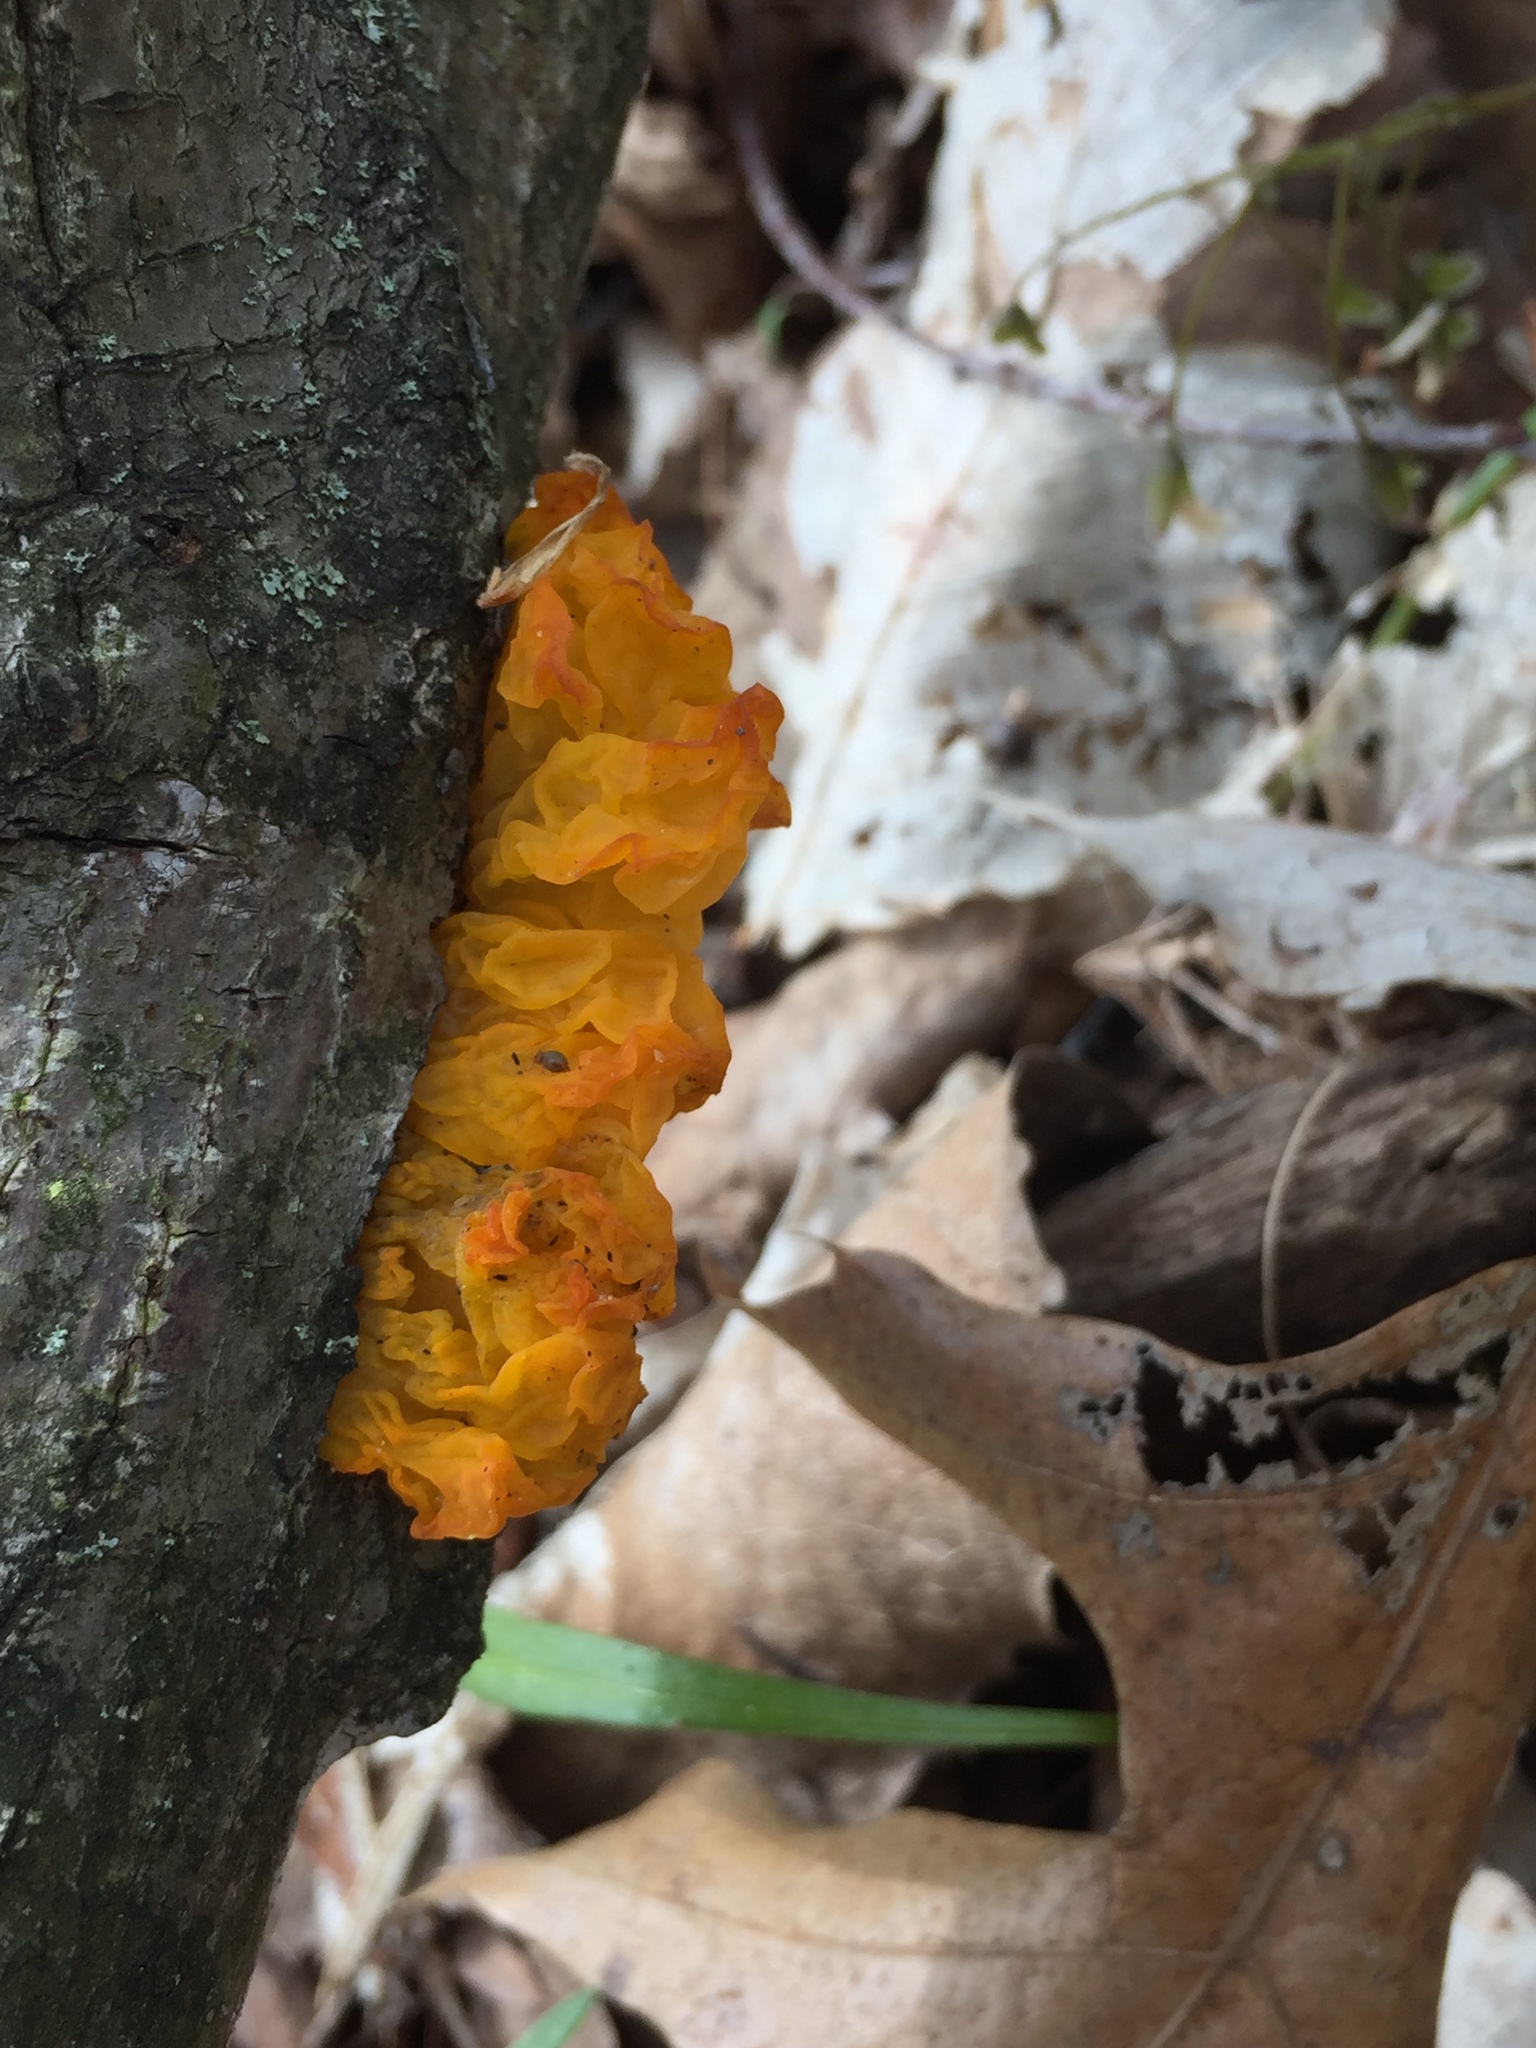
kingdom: Fungi
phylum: Basidiomycota
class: Tremellomycetes
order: Tremellales
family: Tremellaceae
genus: Tremella
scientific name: Tremella mesenterica
